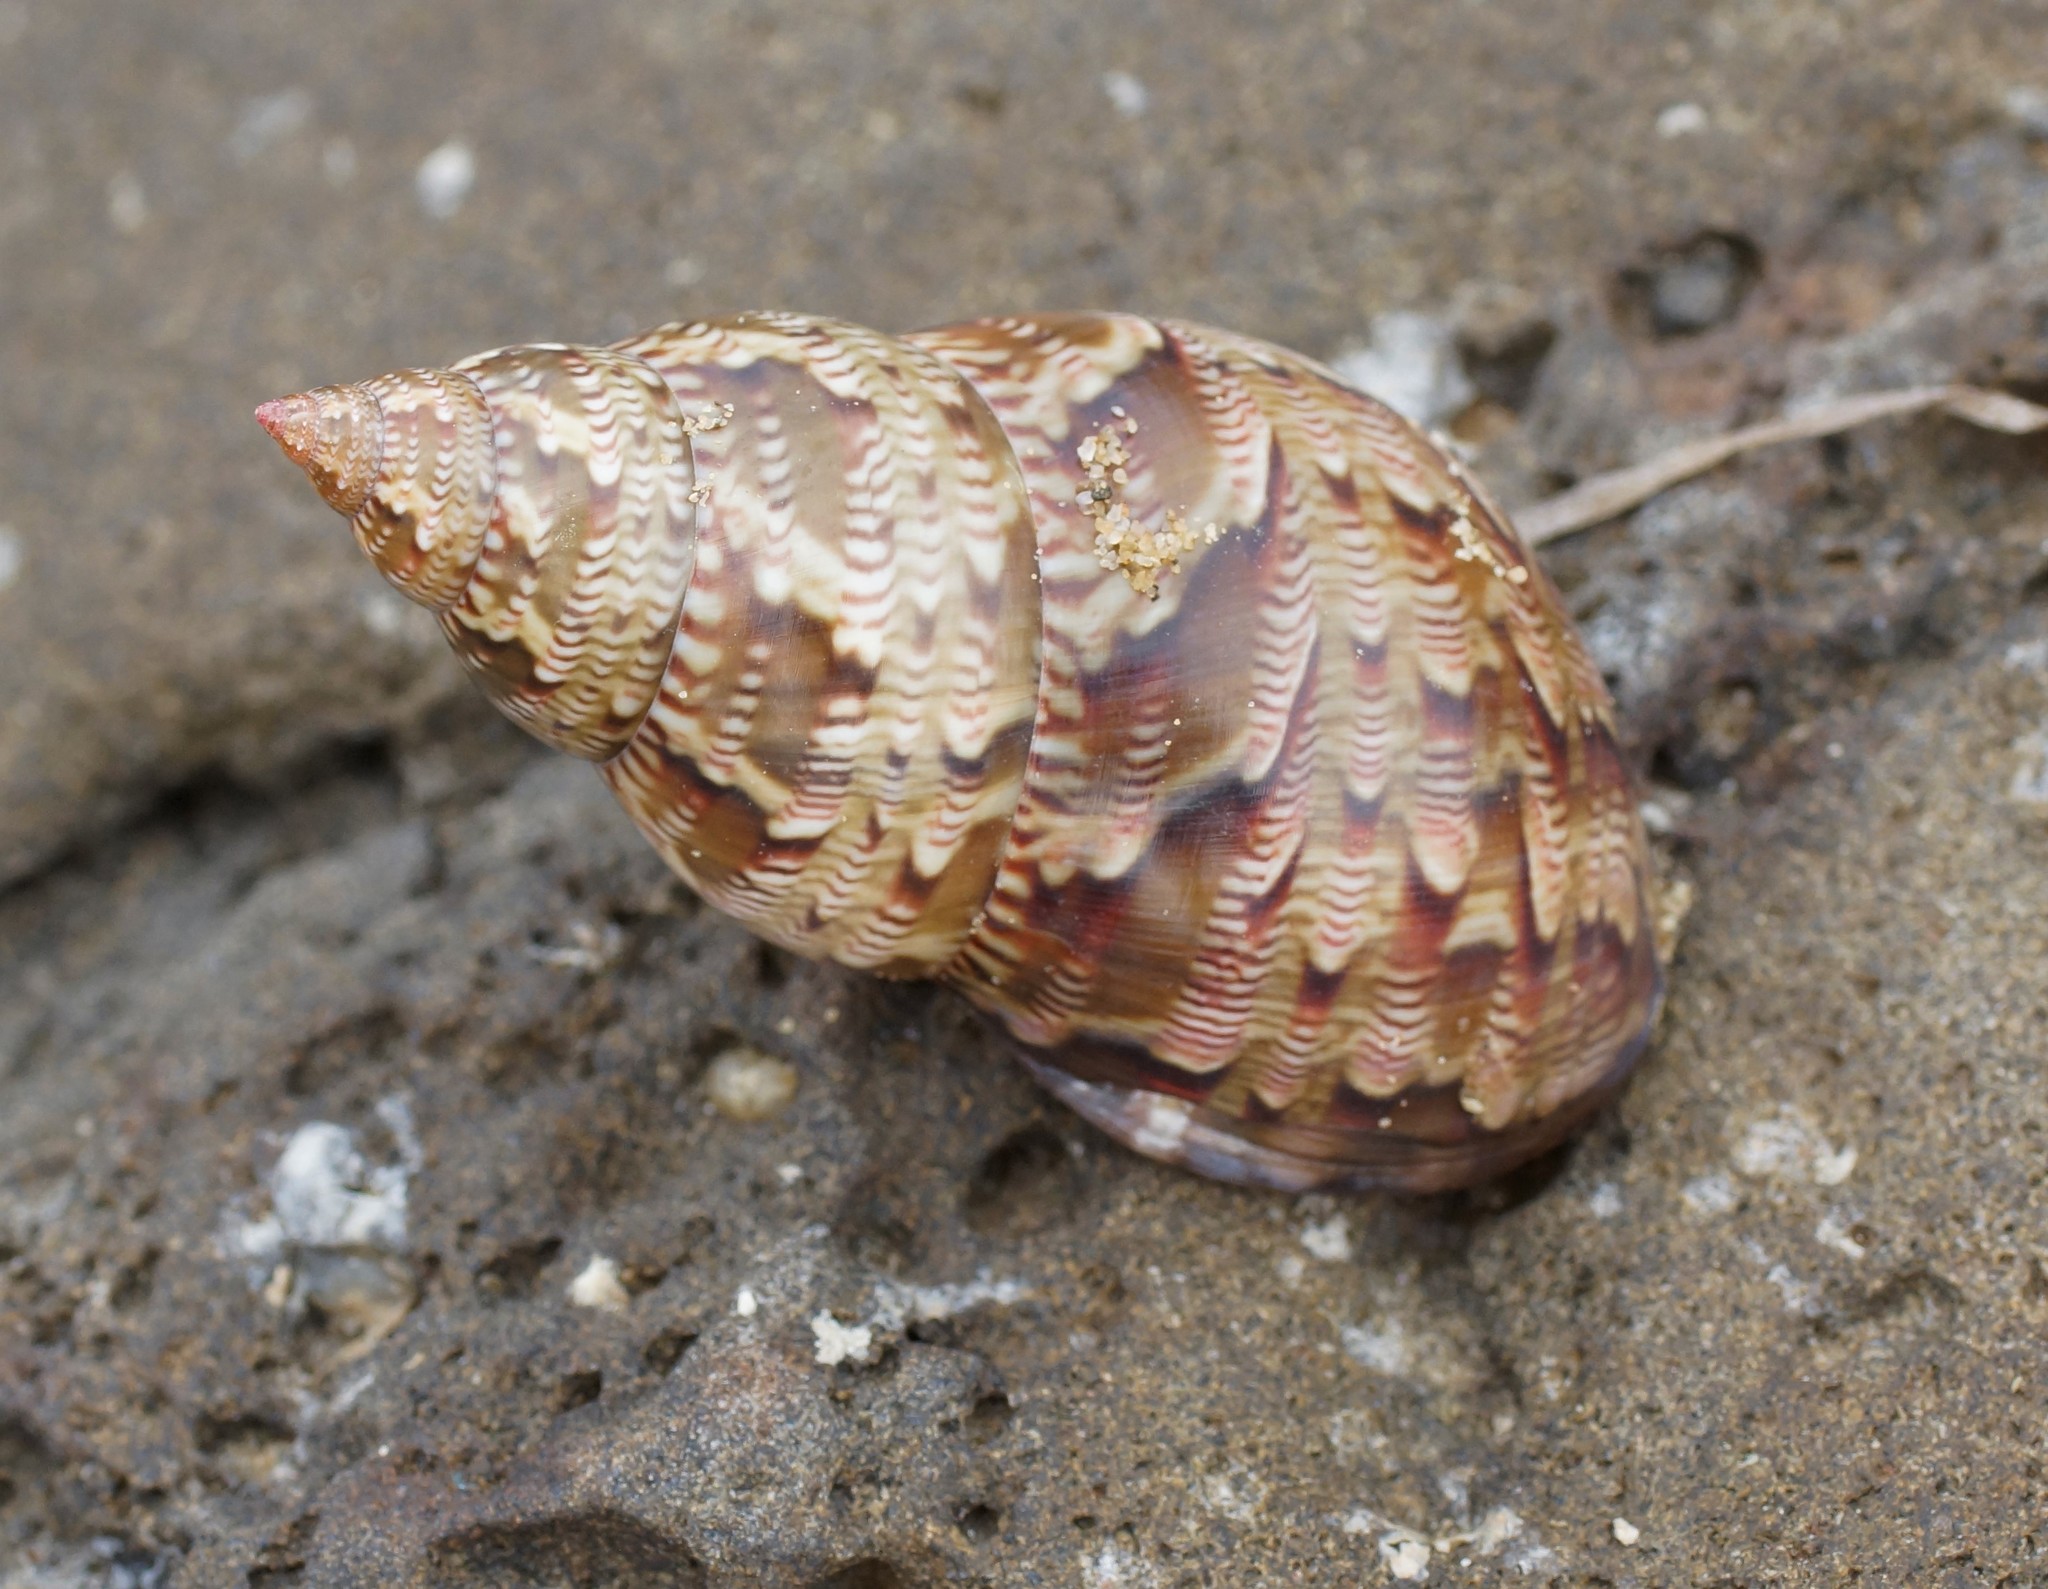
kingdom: Animalia
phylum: Mollusca
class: Gastropoda
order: Trochida
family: Phasianellidae
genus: Phasianella
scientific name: Phasianella australis
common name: Painted lady
